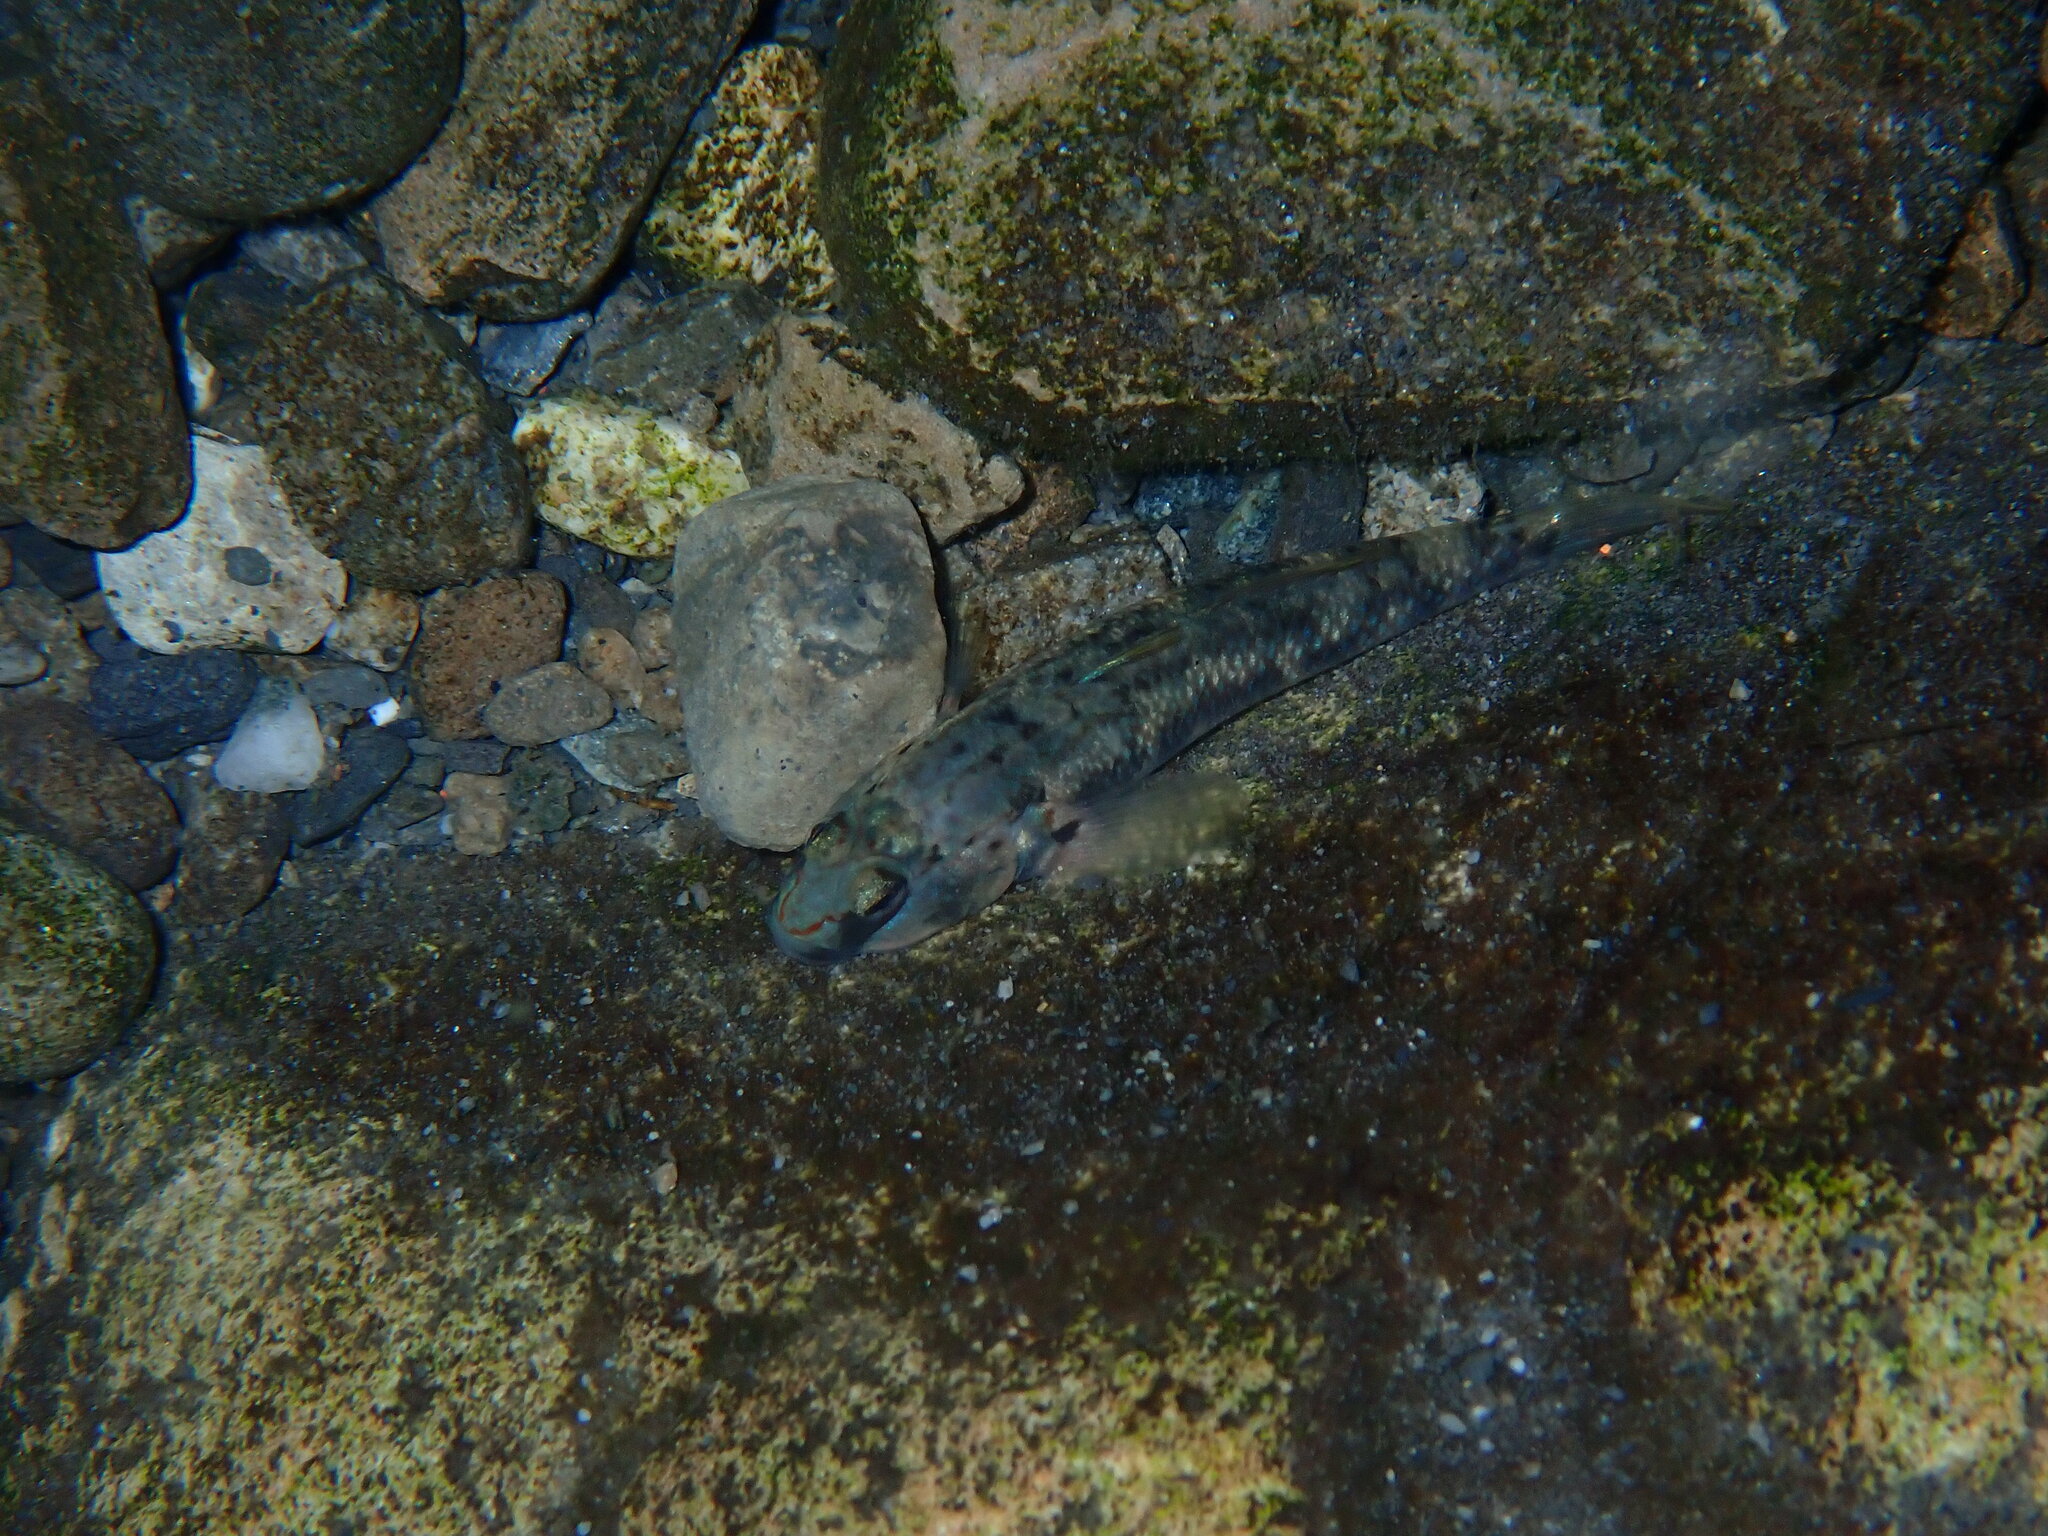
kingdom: Animalia
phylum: Chordata
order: Perciformes
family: Gobiidae
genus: Rhinogobius
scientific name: Rhinogobius candidianus
